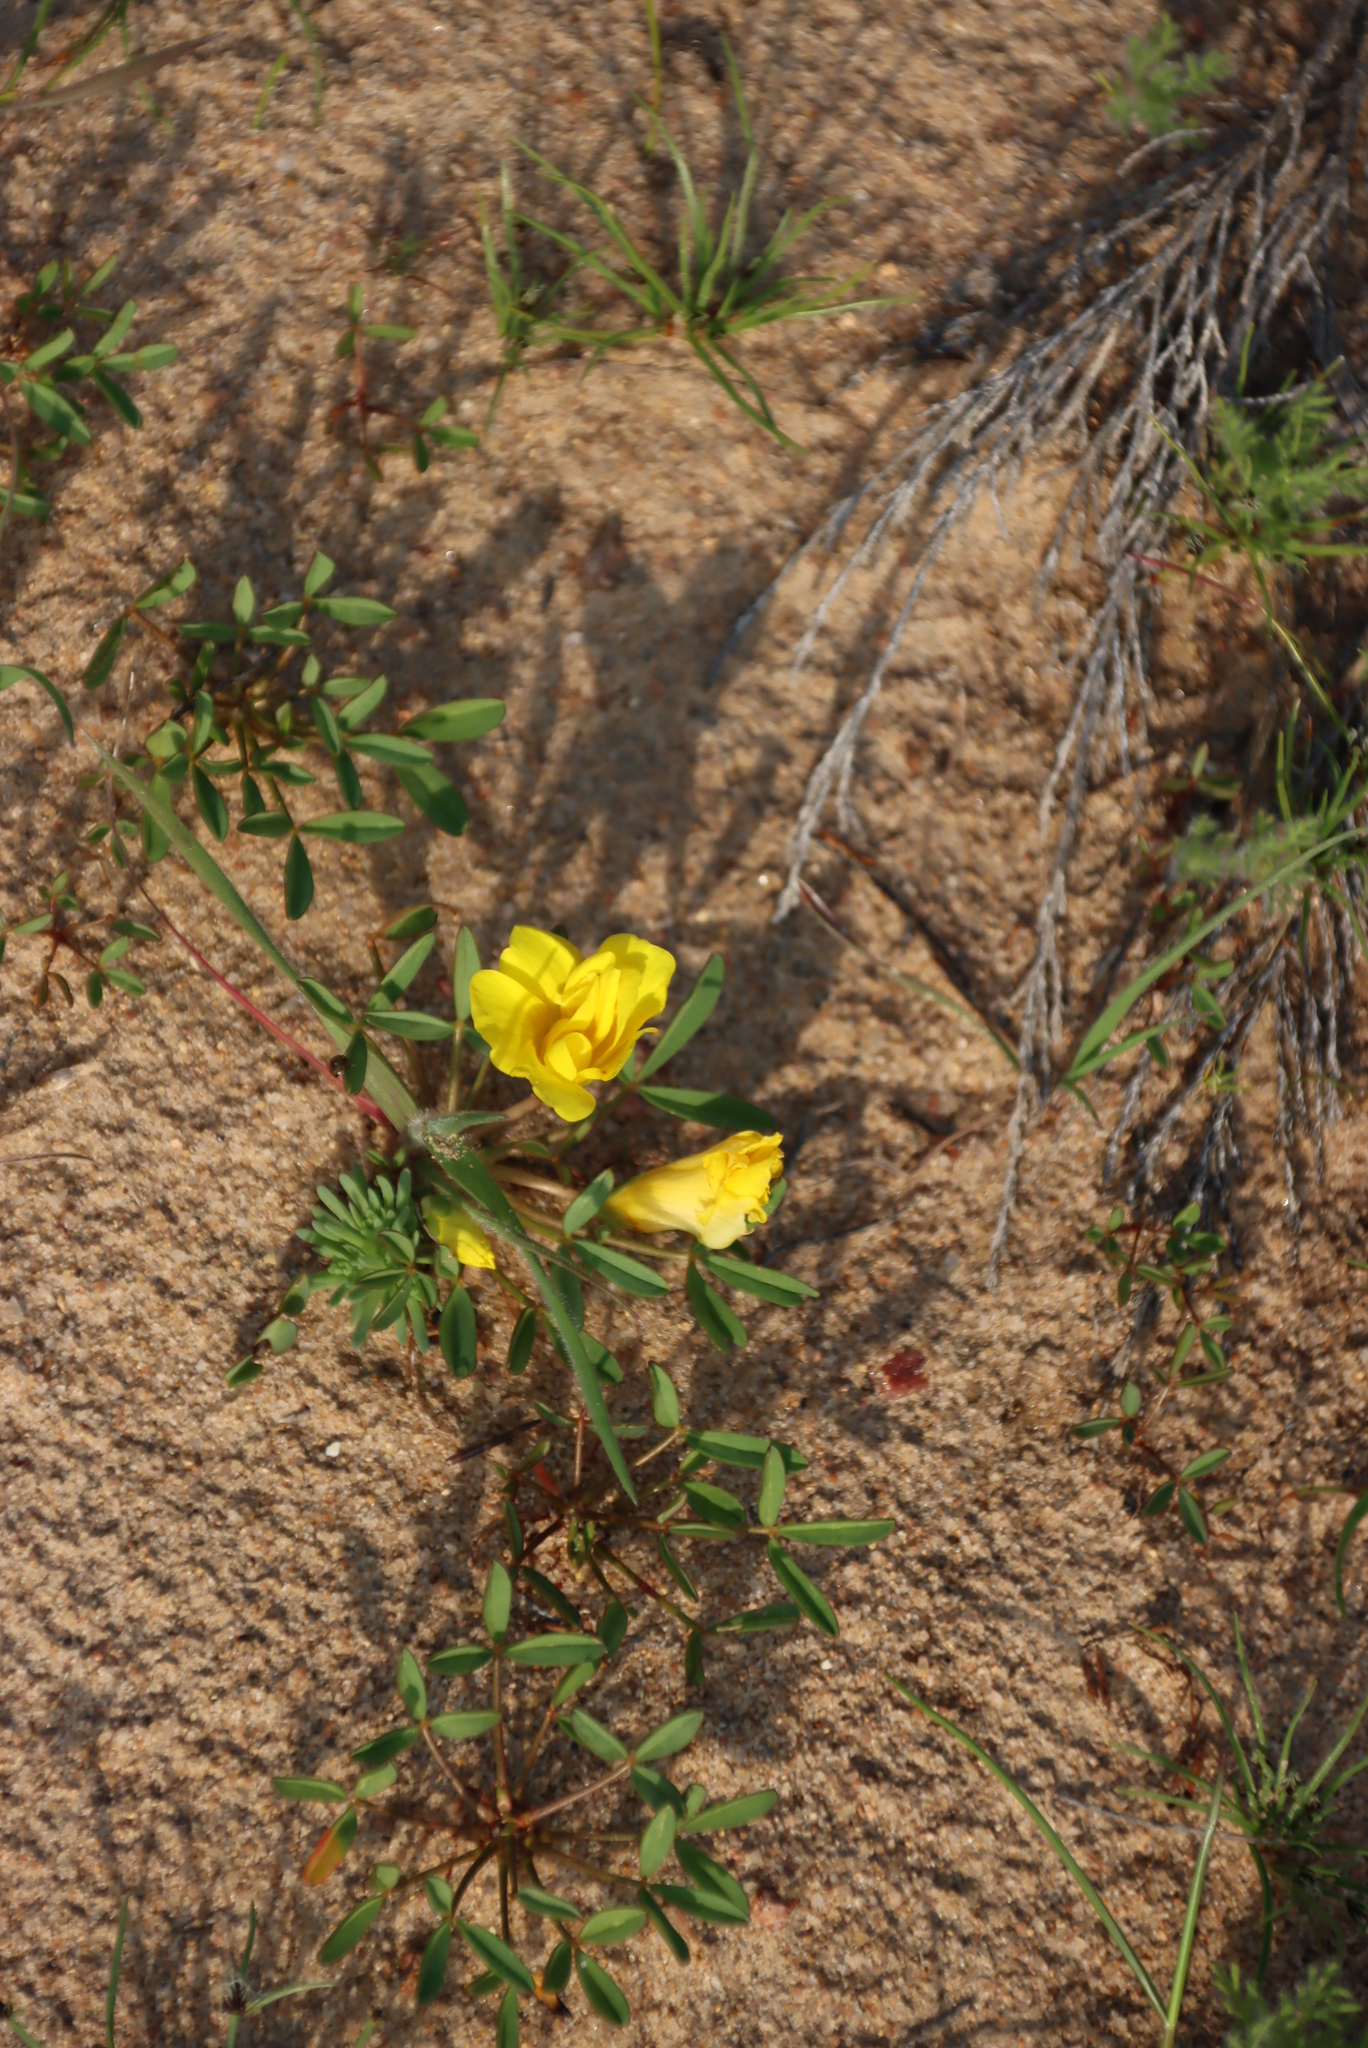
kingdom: Plantae
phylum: Tracheophyta
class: Magnoliopsida
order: Oxalidales
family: Oxalidaceae
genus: Oxalis
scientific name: Oxalis namaquana
